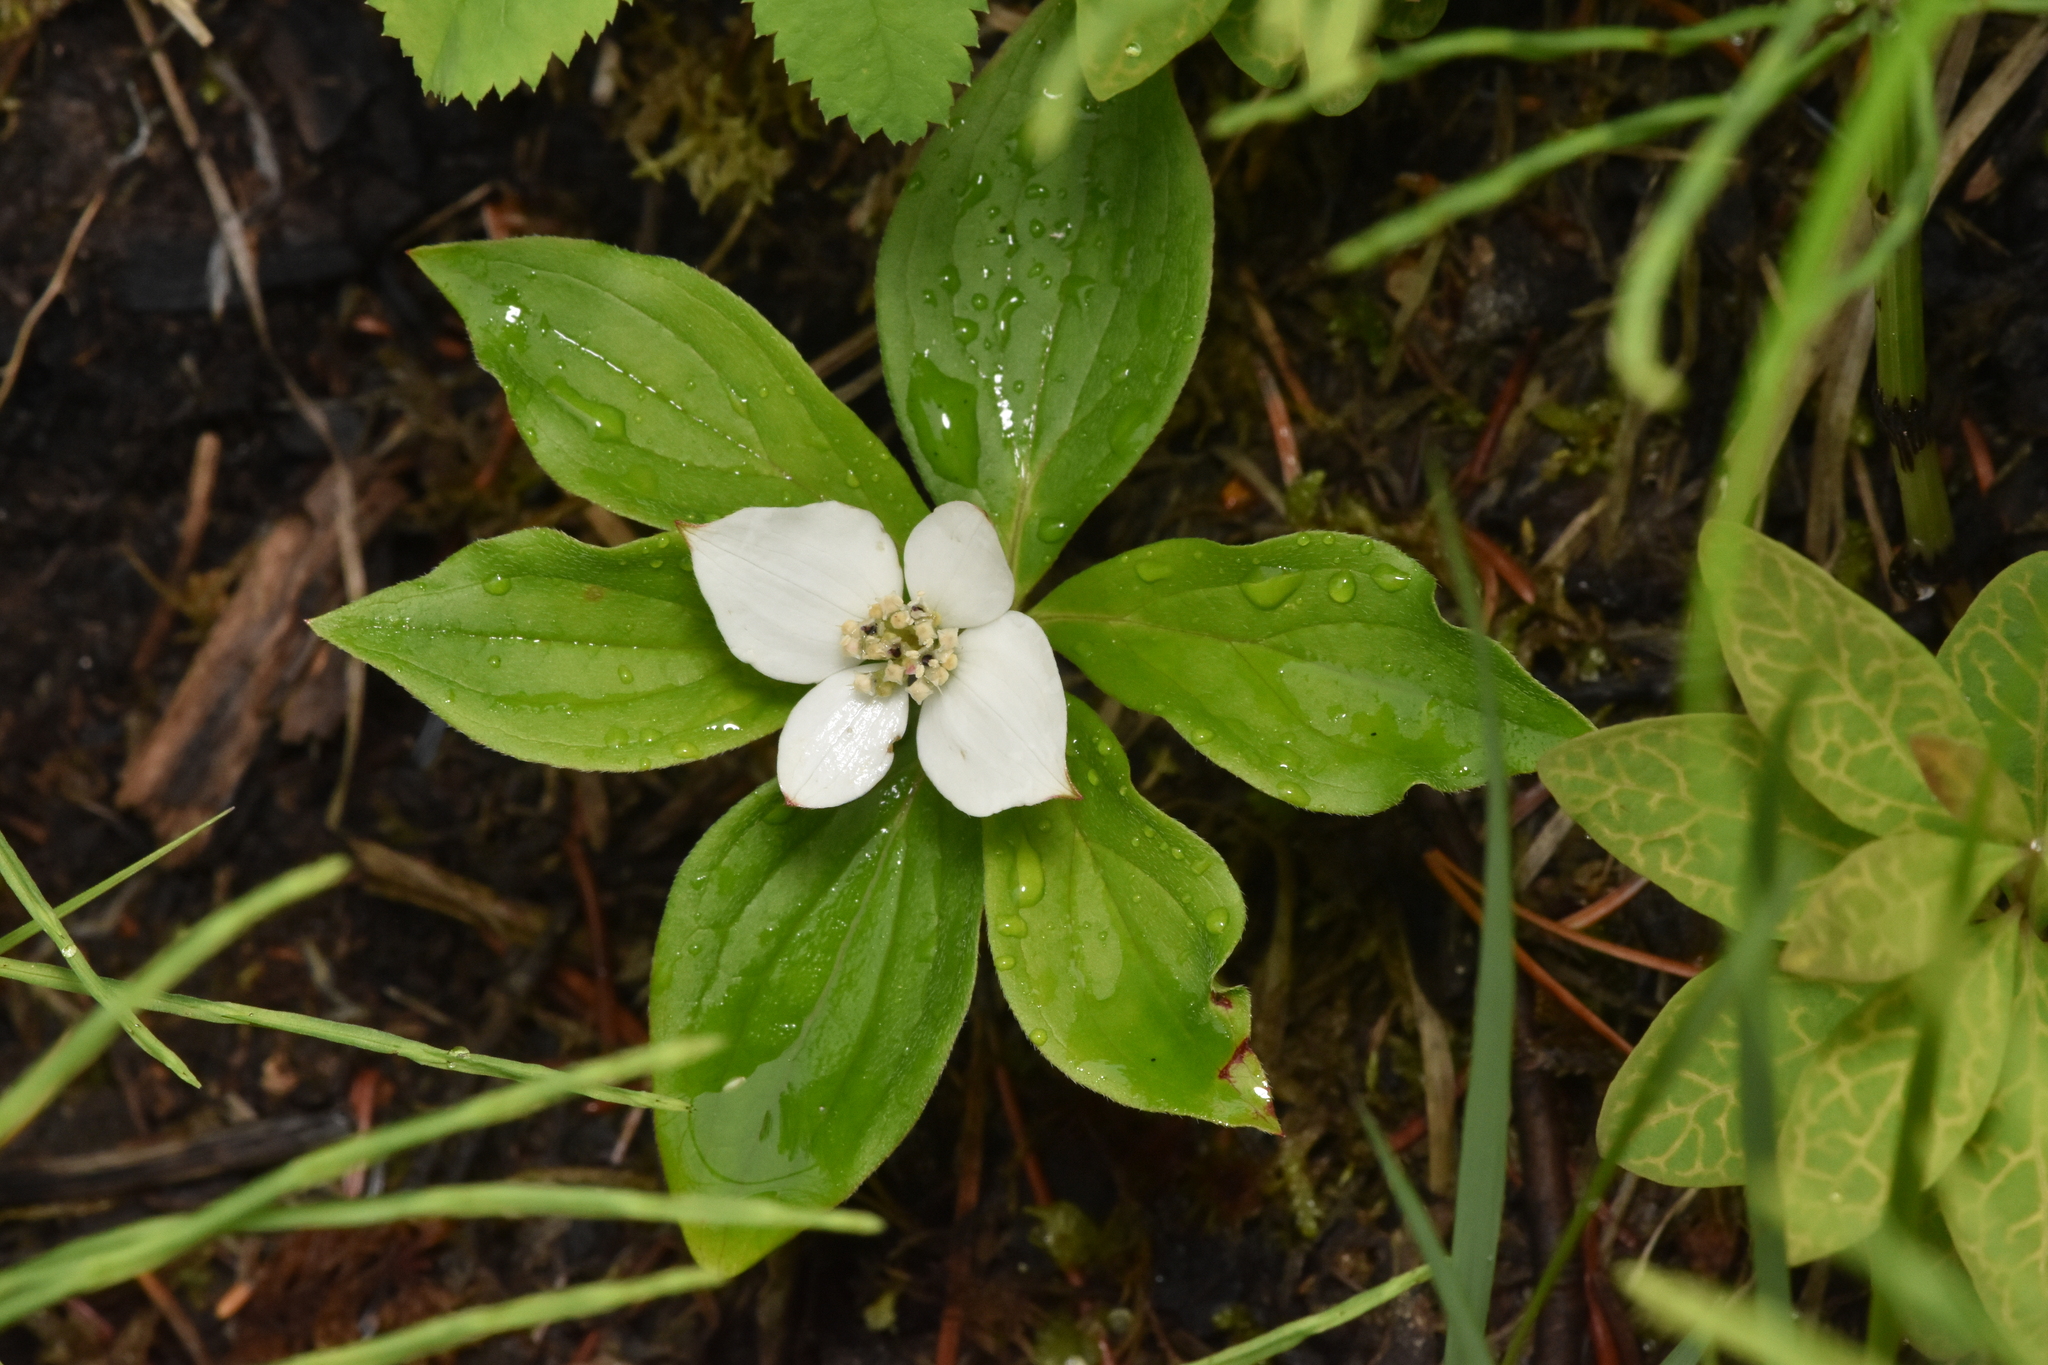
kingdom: Plantae
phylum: Tracheophyta
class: Magnoliopsida
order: Cornales
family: Cornaceae
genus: Cornus
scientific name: Cornus canadensis
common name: Creeping dogwood
